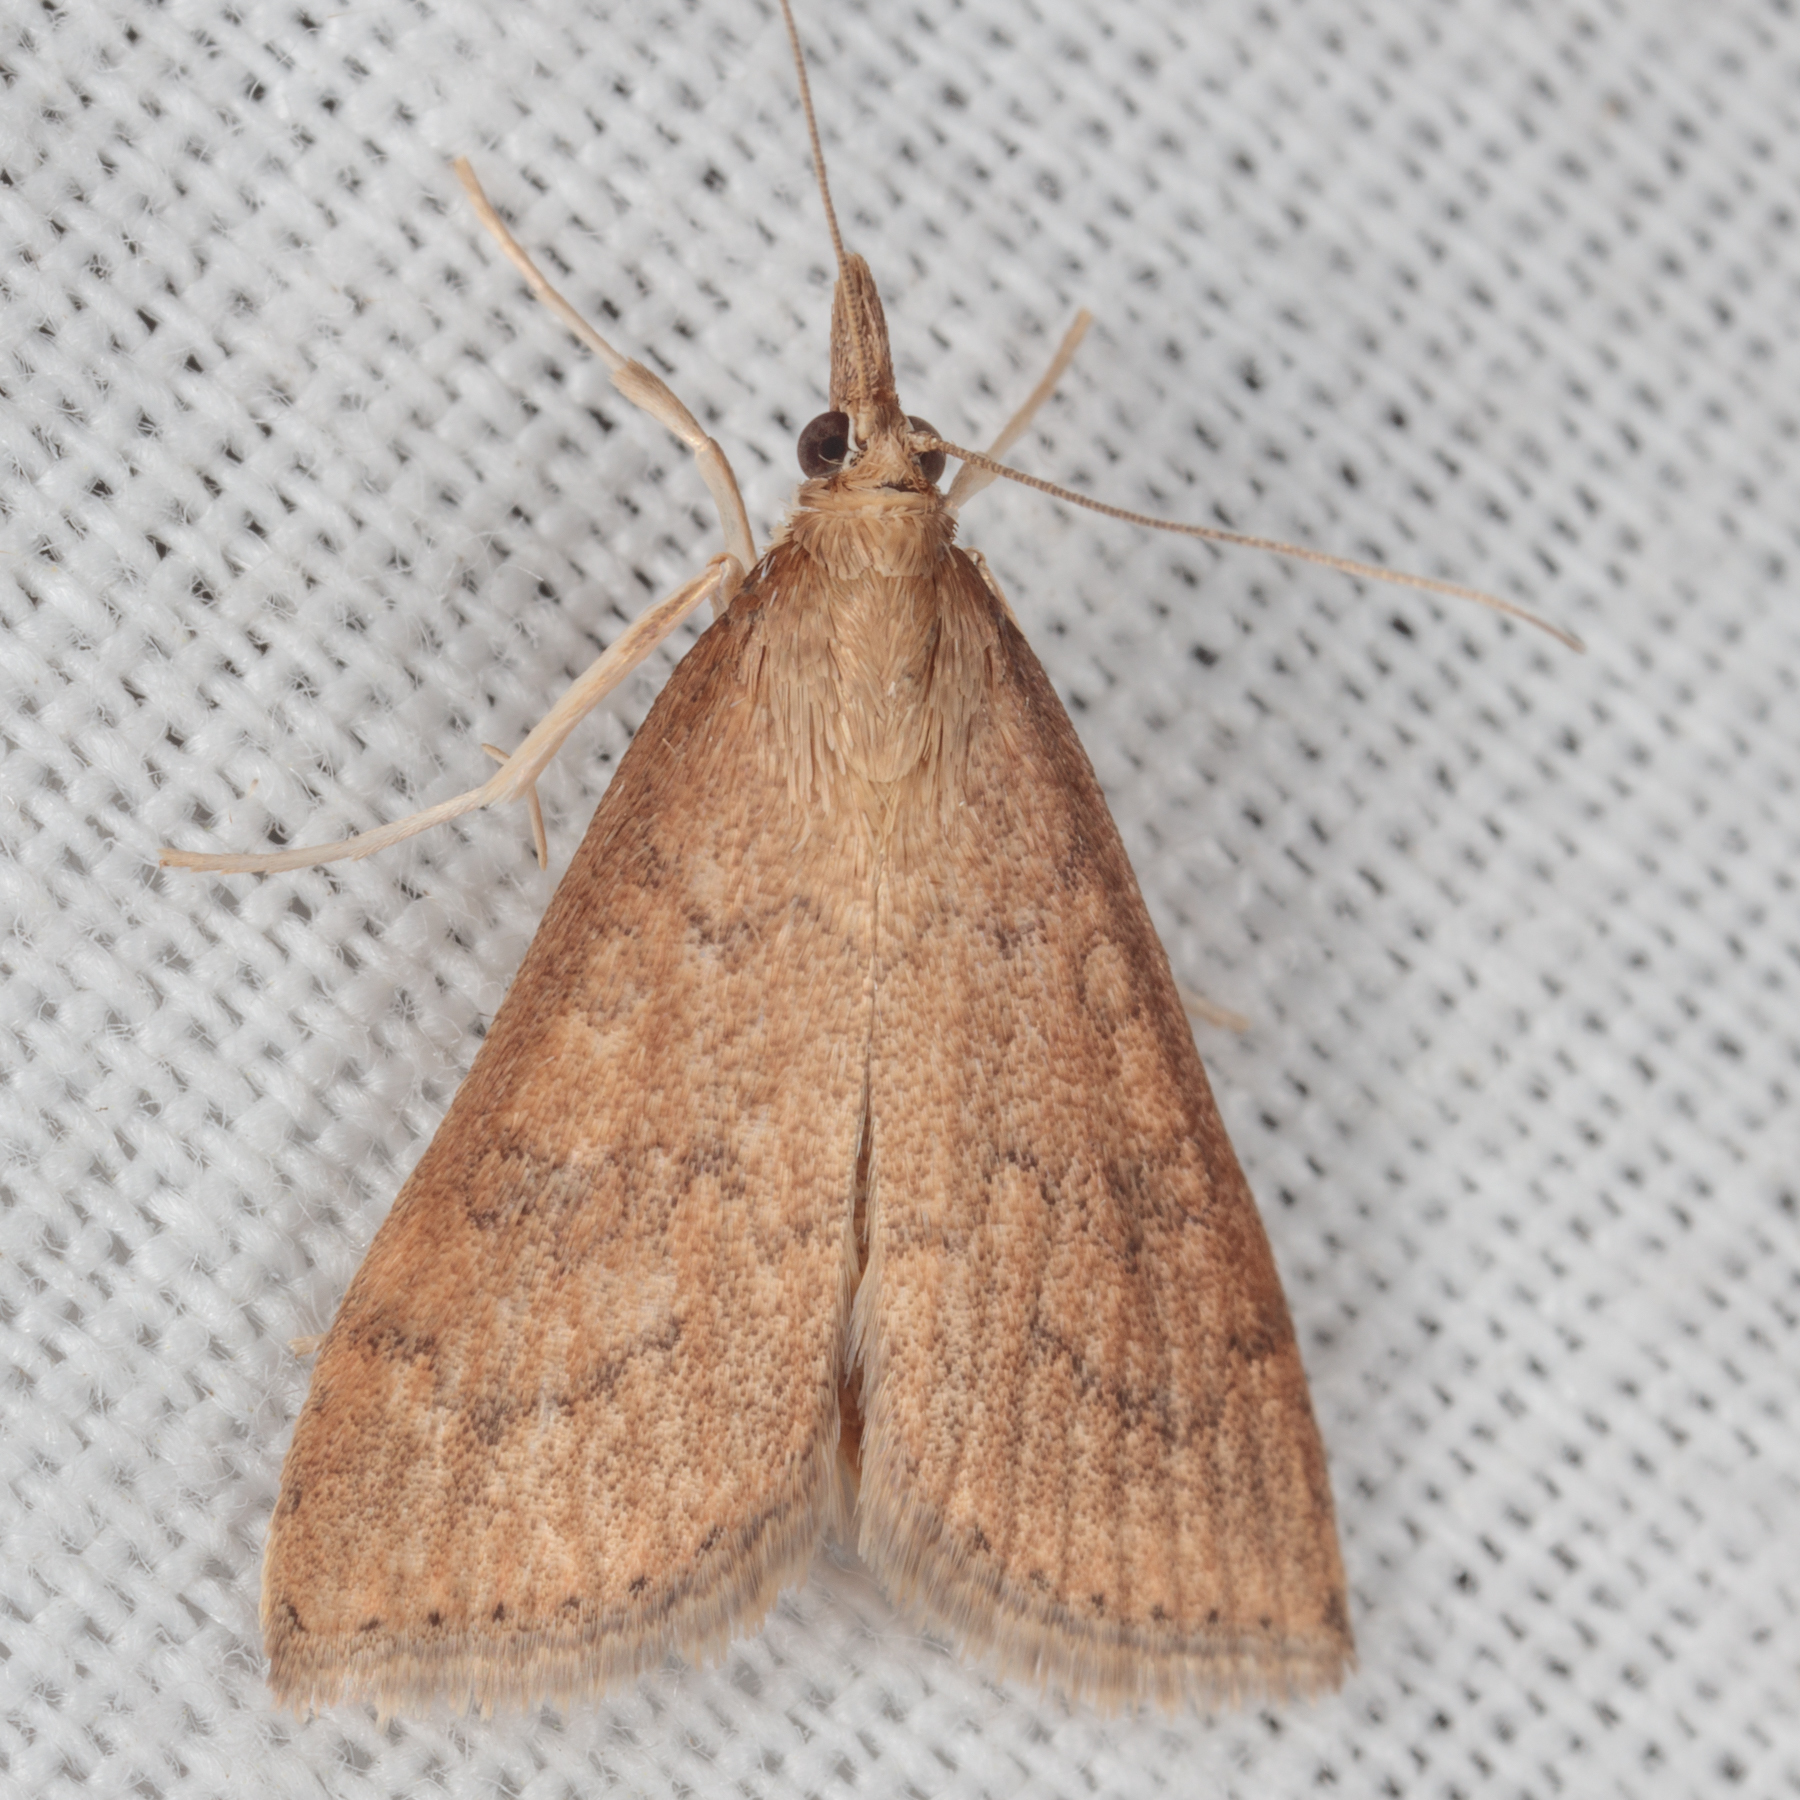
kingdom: Animalia
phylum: Arthropoda
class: Insecta
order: Lepidoptera
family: Crambidae
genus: Udea
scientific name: Udea rubigalis
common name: Celery leaftier moth
